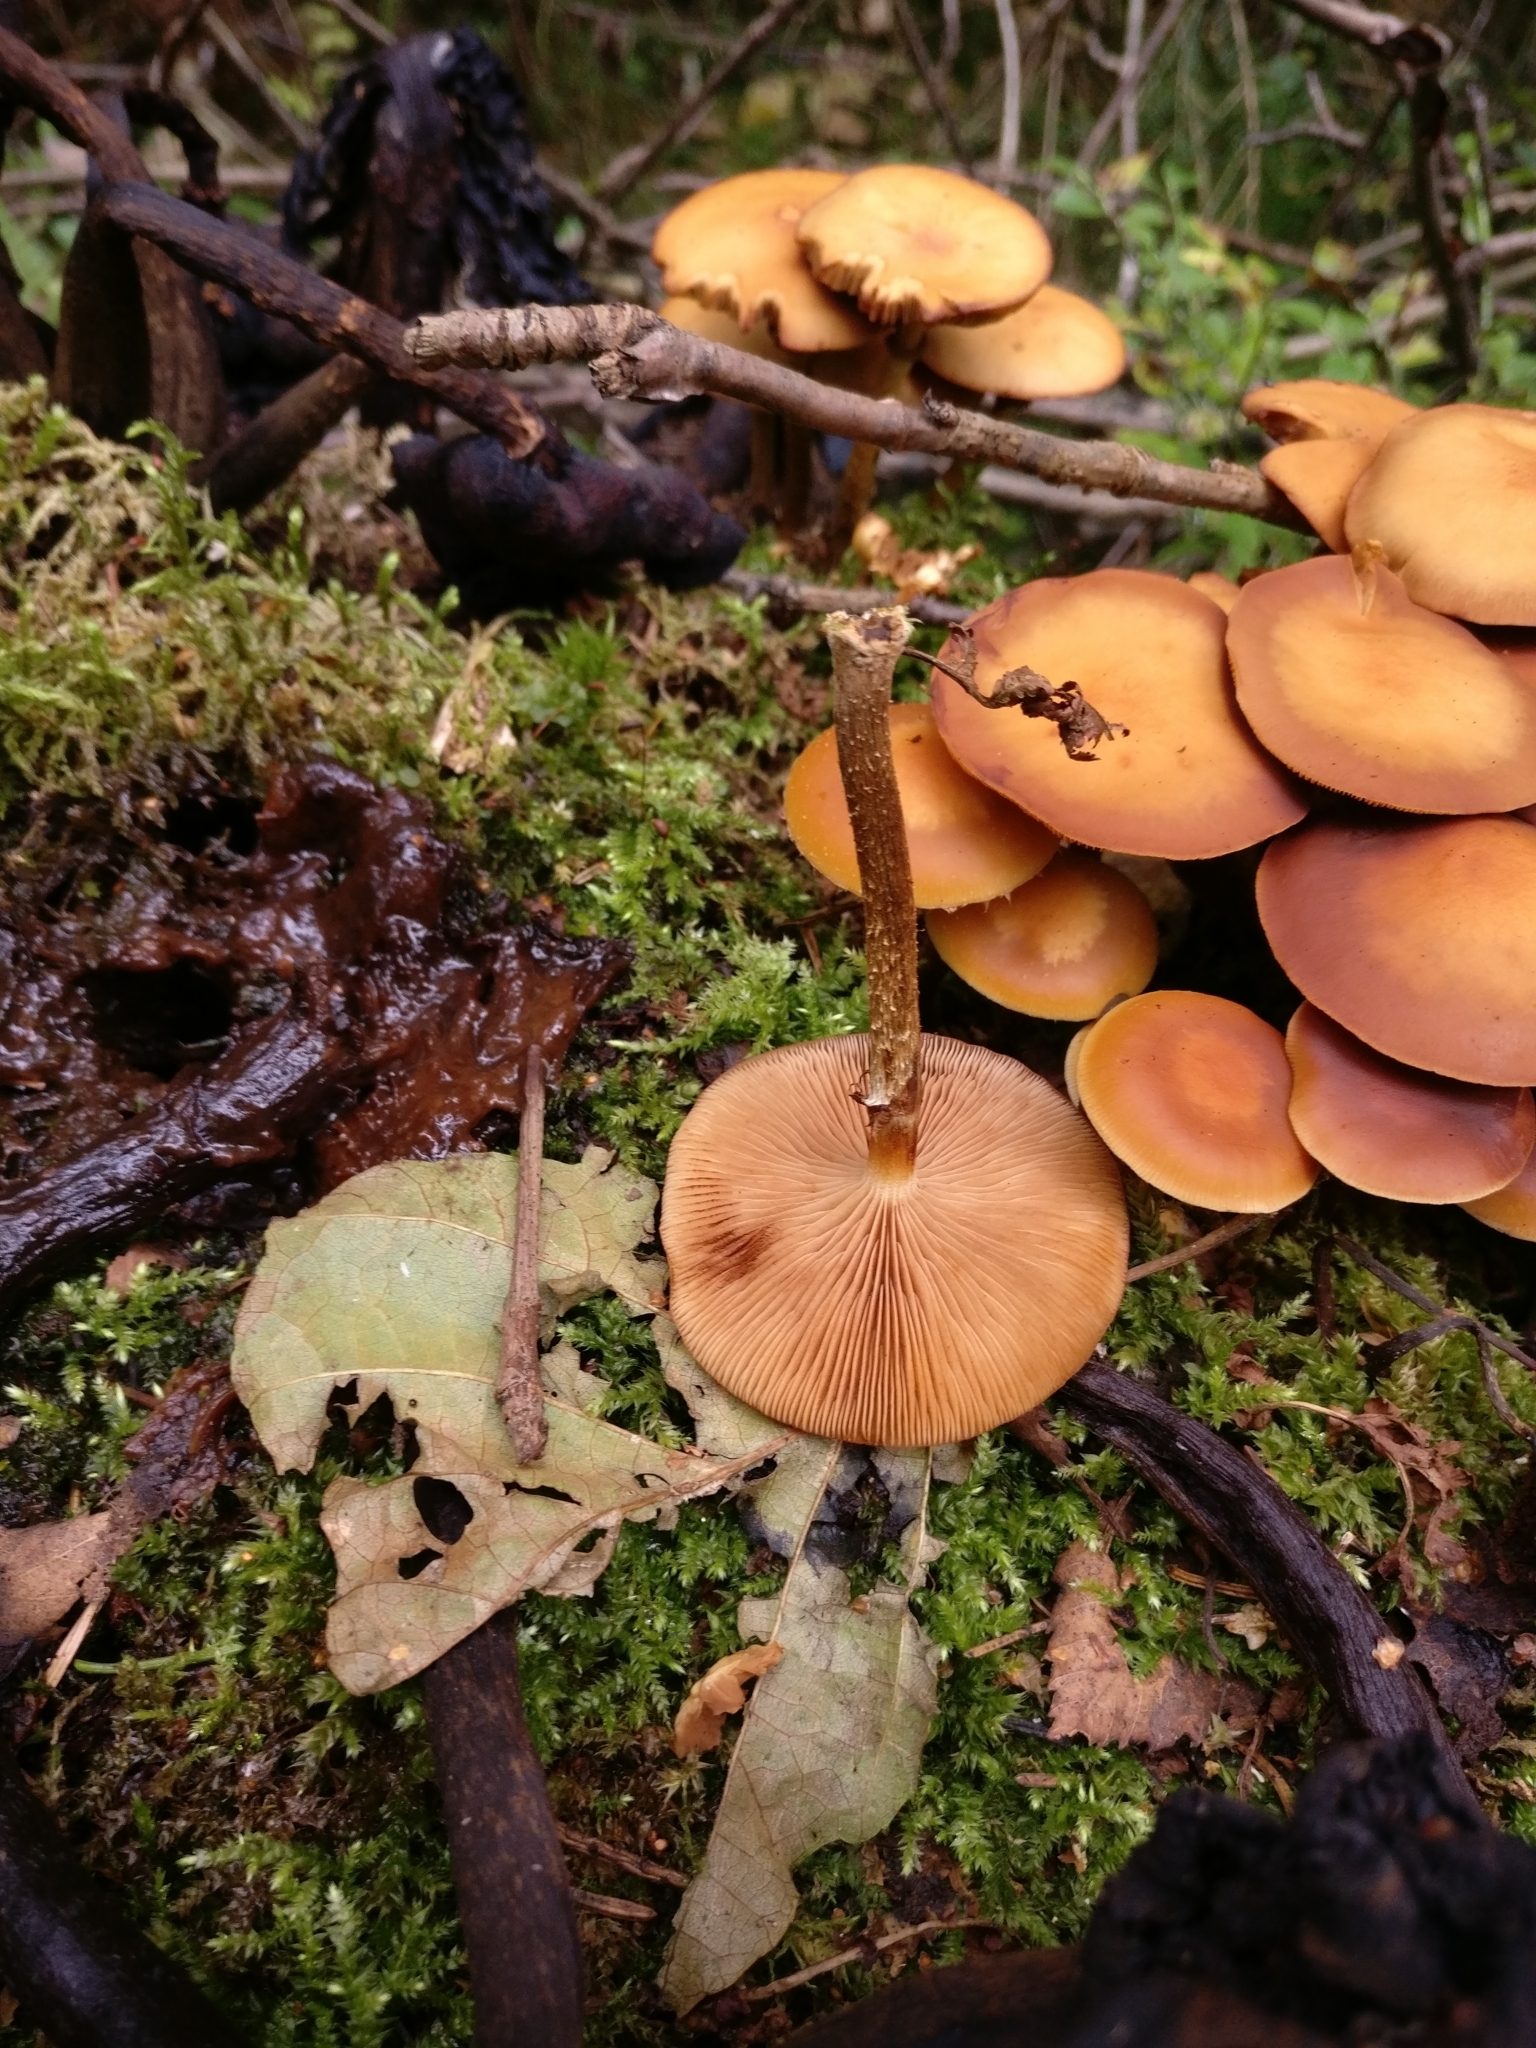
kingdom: Fungi
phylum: Basidiomycota
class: Agaricomycetes
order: Agaricales
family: Strophariaceae
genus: Kuehneromyces
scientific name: Kuehneromyces mutabilis
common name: Sheathed woodtuft
